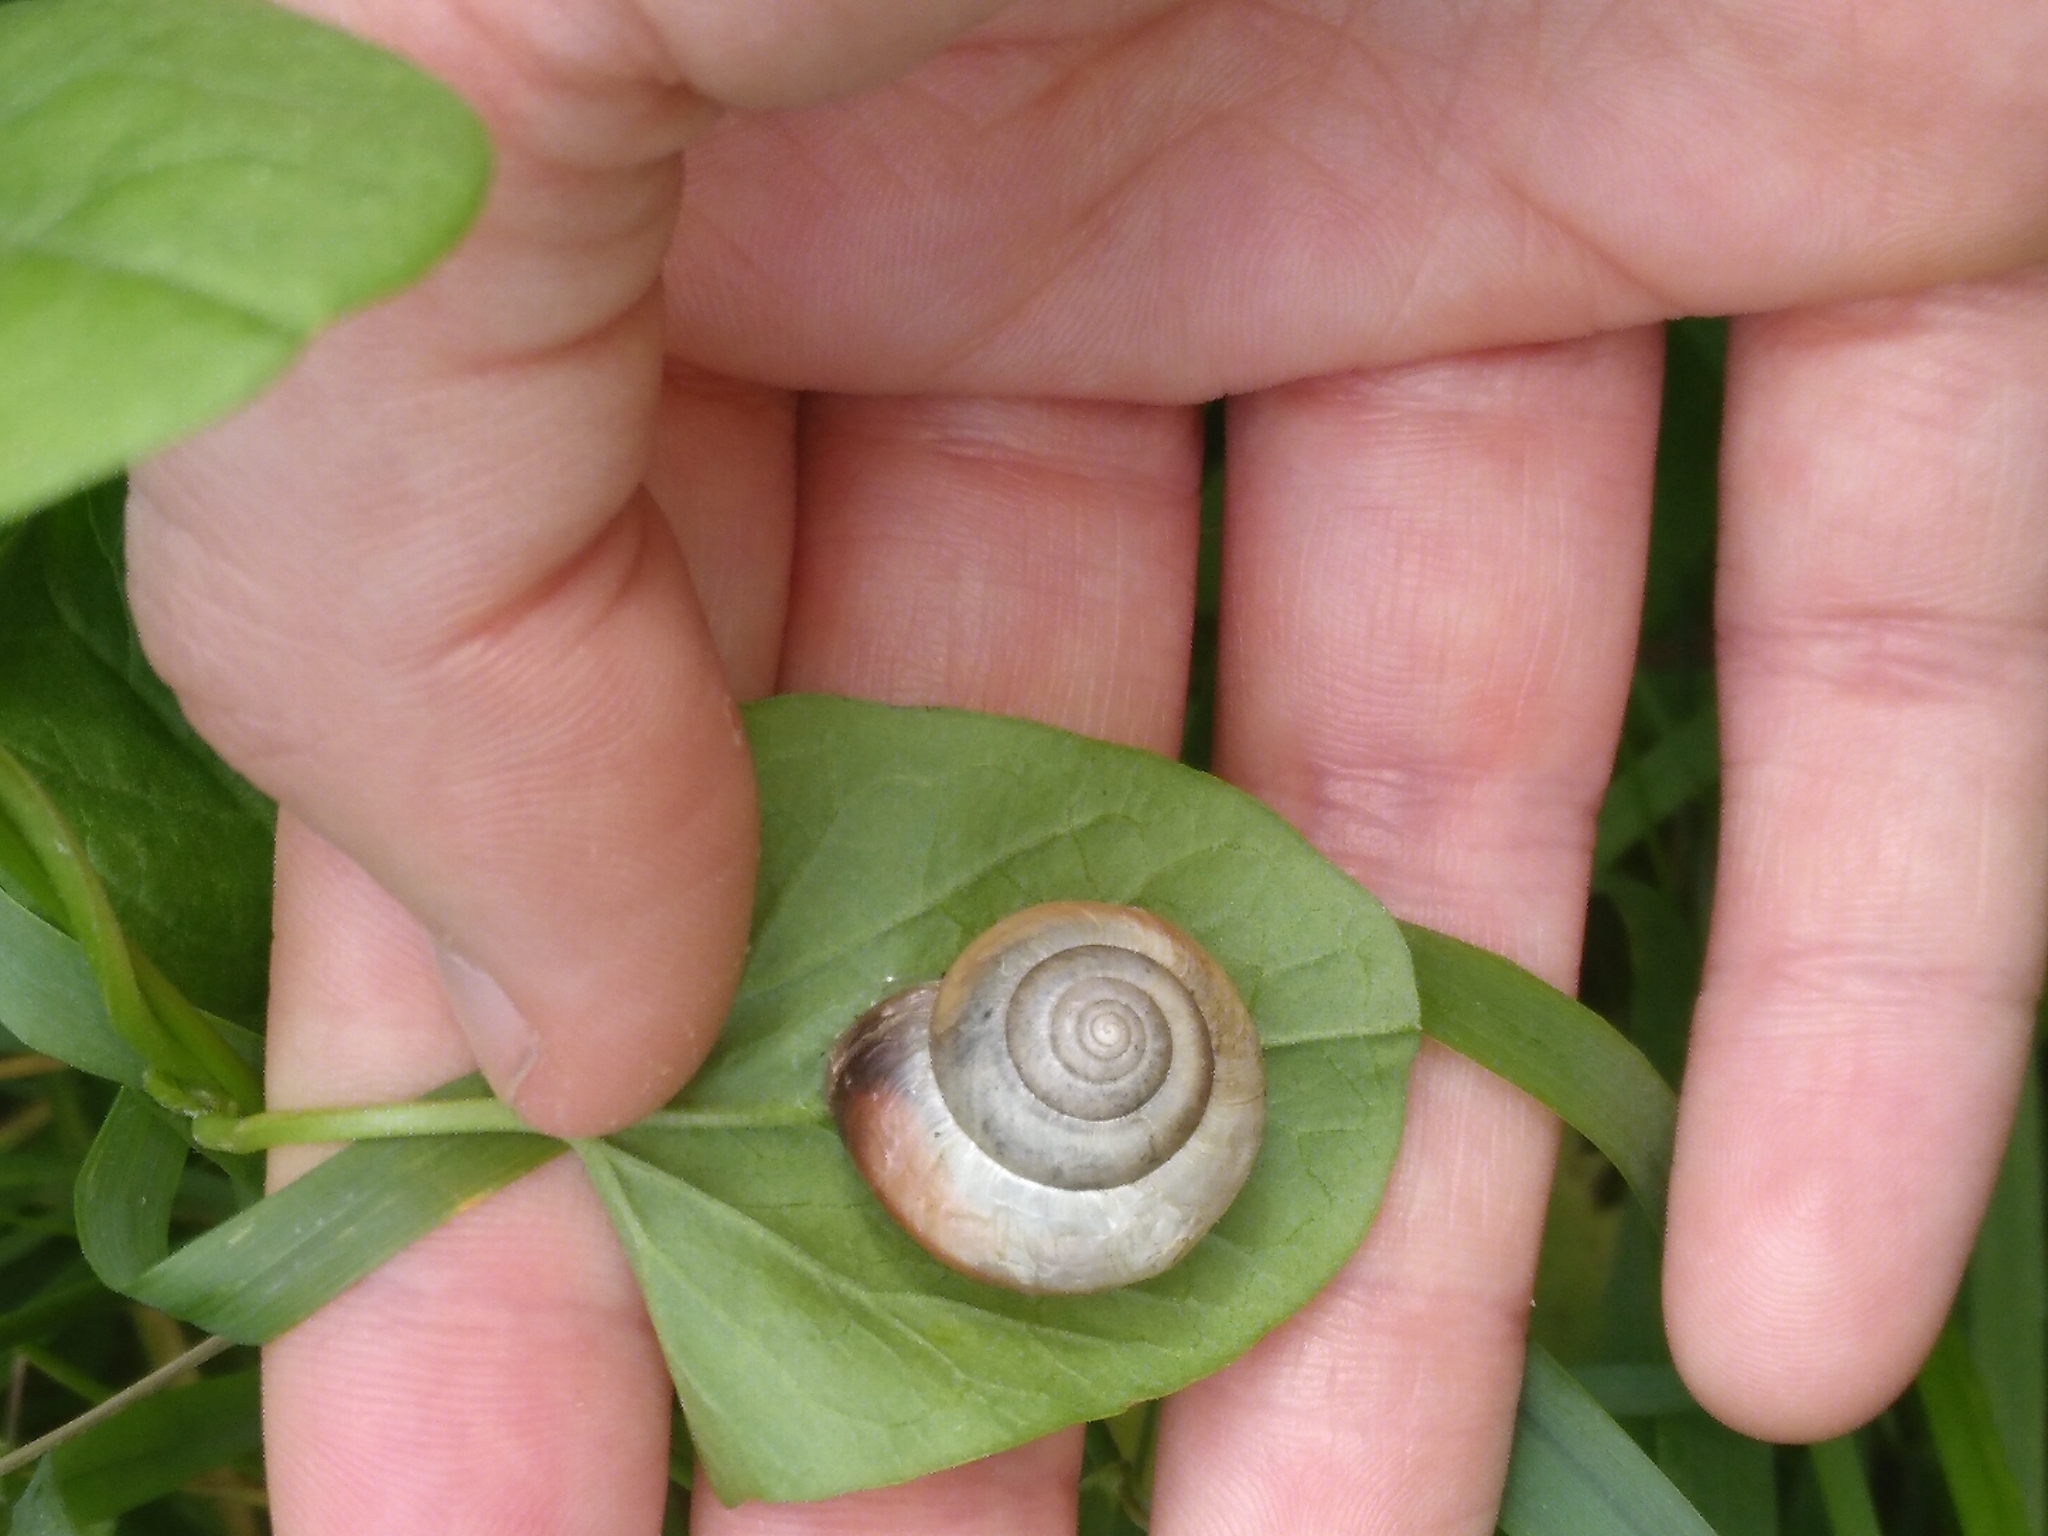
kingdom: Animalia
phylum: Mollusca
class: Gastropoda
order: Stylommatophora
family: Hygromiidae
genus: Monacha
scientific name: Monacha cantiana
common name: Kentish snail
